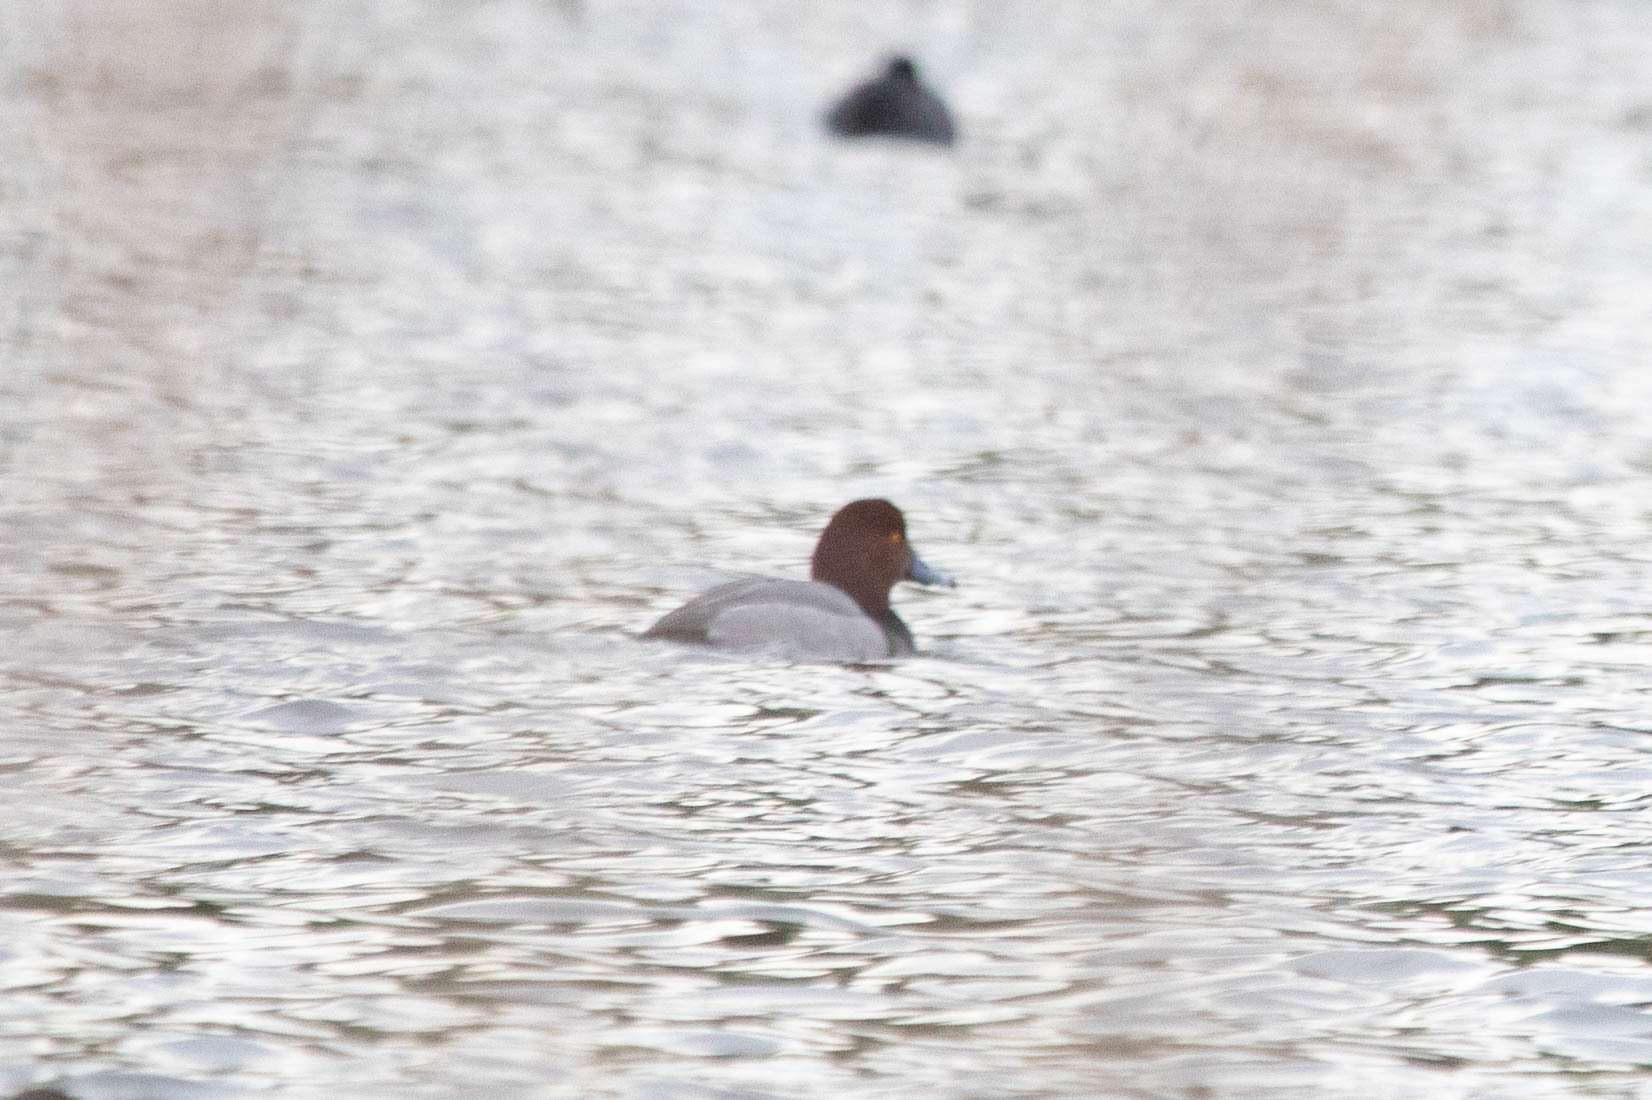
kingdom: Animalia
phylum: Chordata
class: Aves
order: Anseriformes
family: Anatidae
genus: Aythya
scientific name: Aythya americana
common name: Redhead
